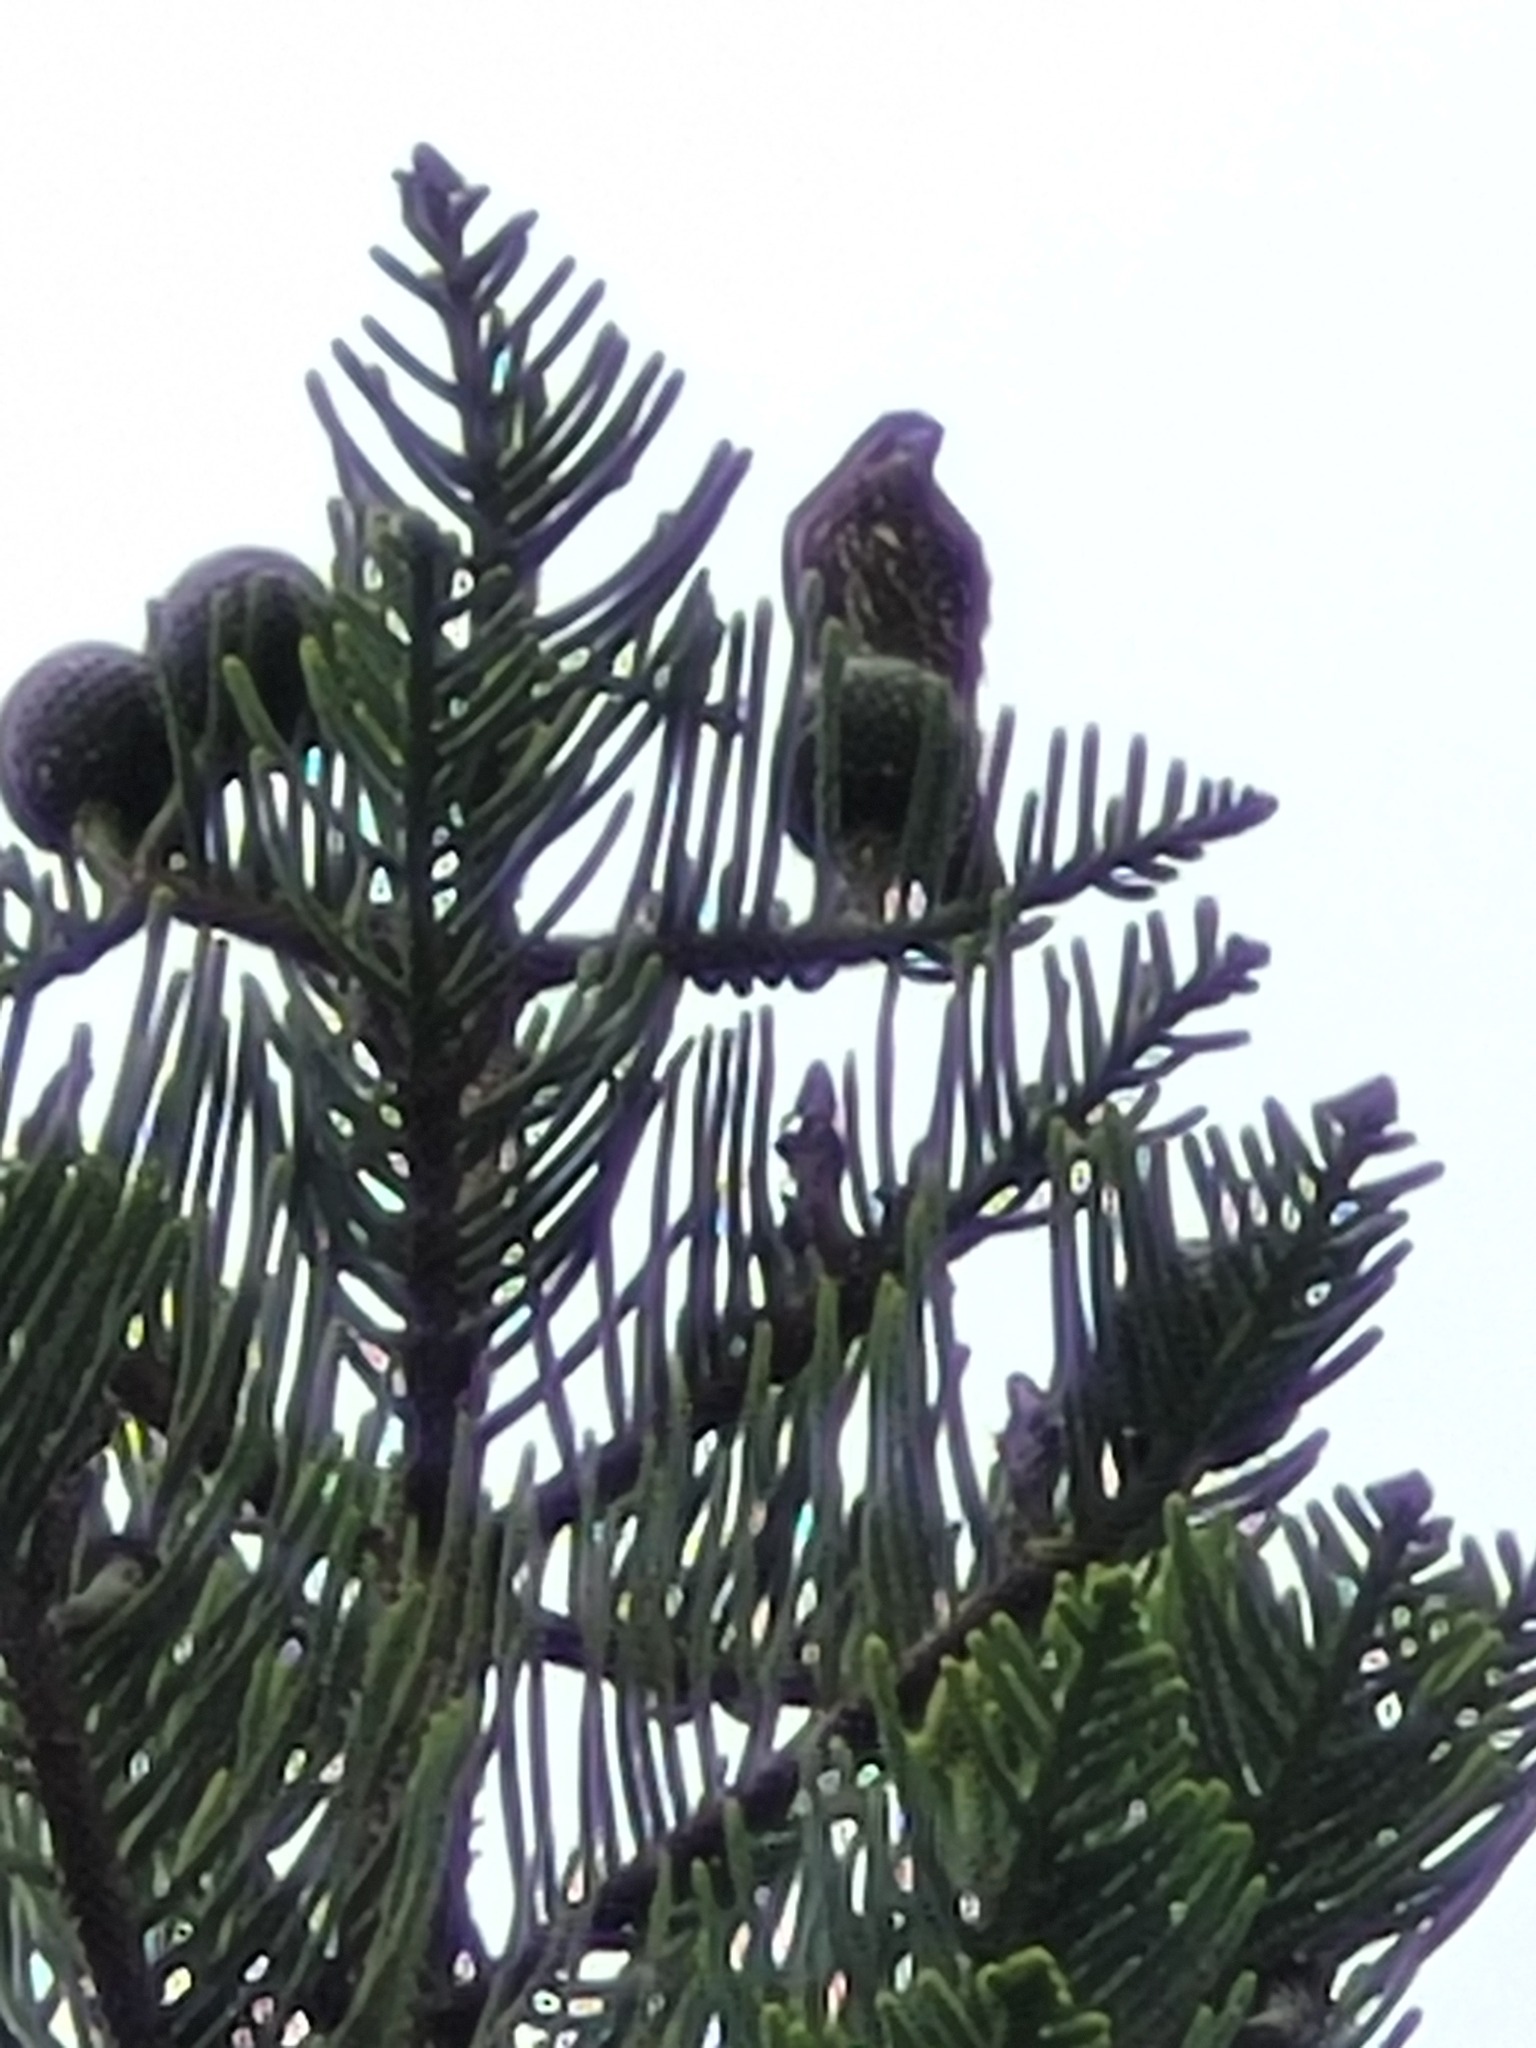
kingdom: Animalia
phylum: Chordata
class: Aves
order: Falconiformes
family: Falconidae
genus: Falco
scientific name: Falco novaeseelandiae
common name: New zealand falcon
